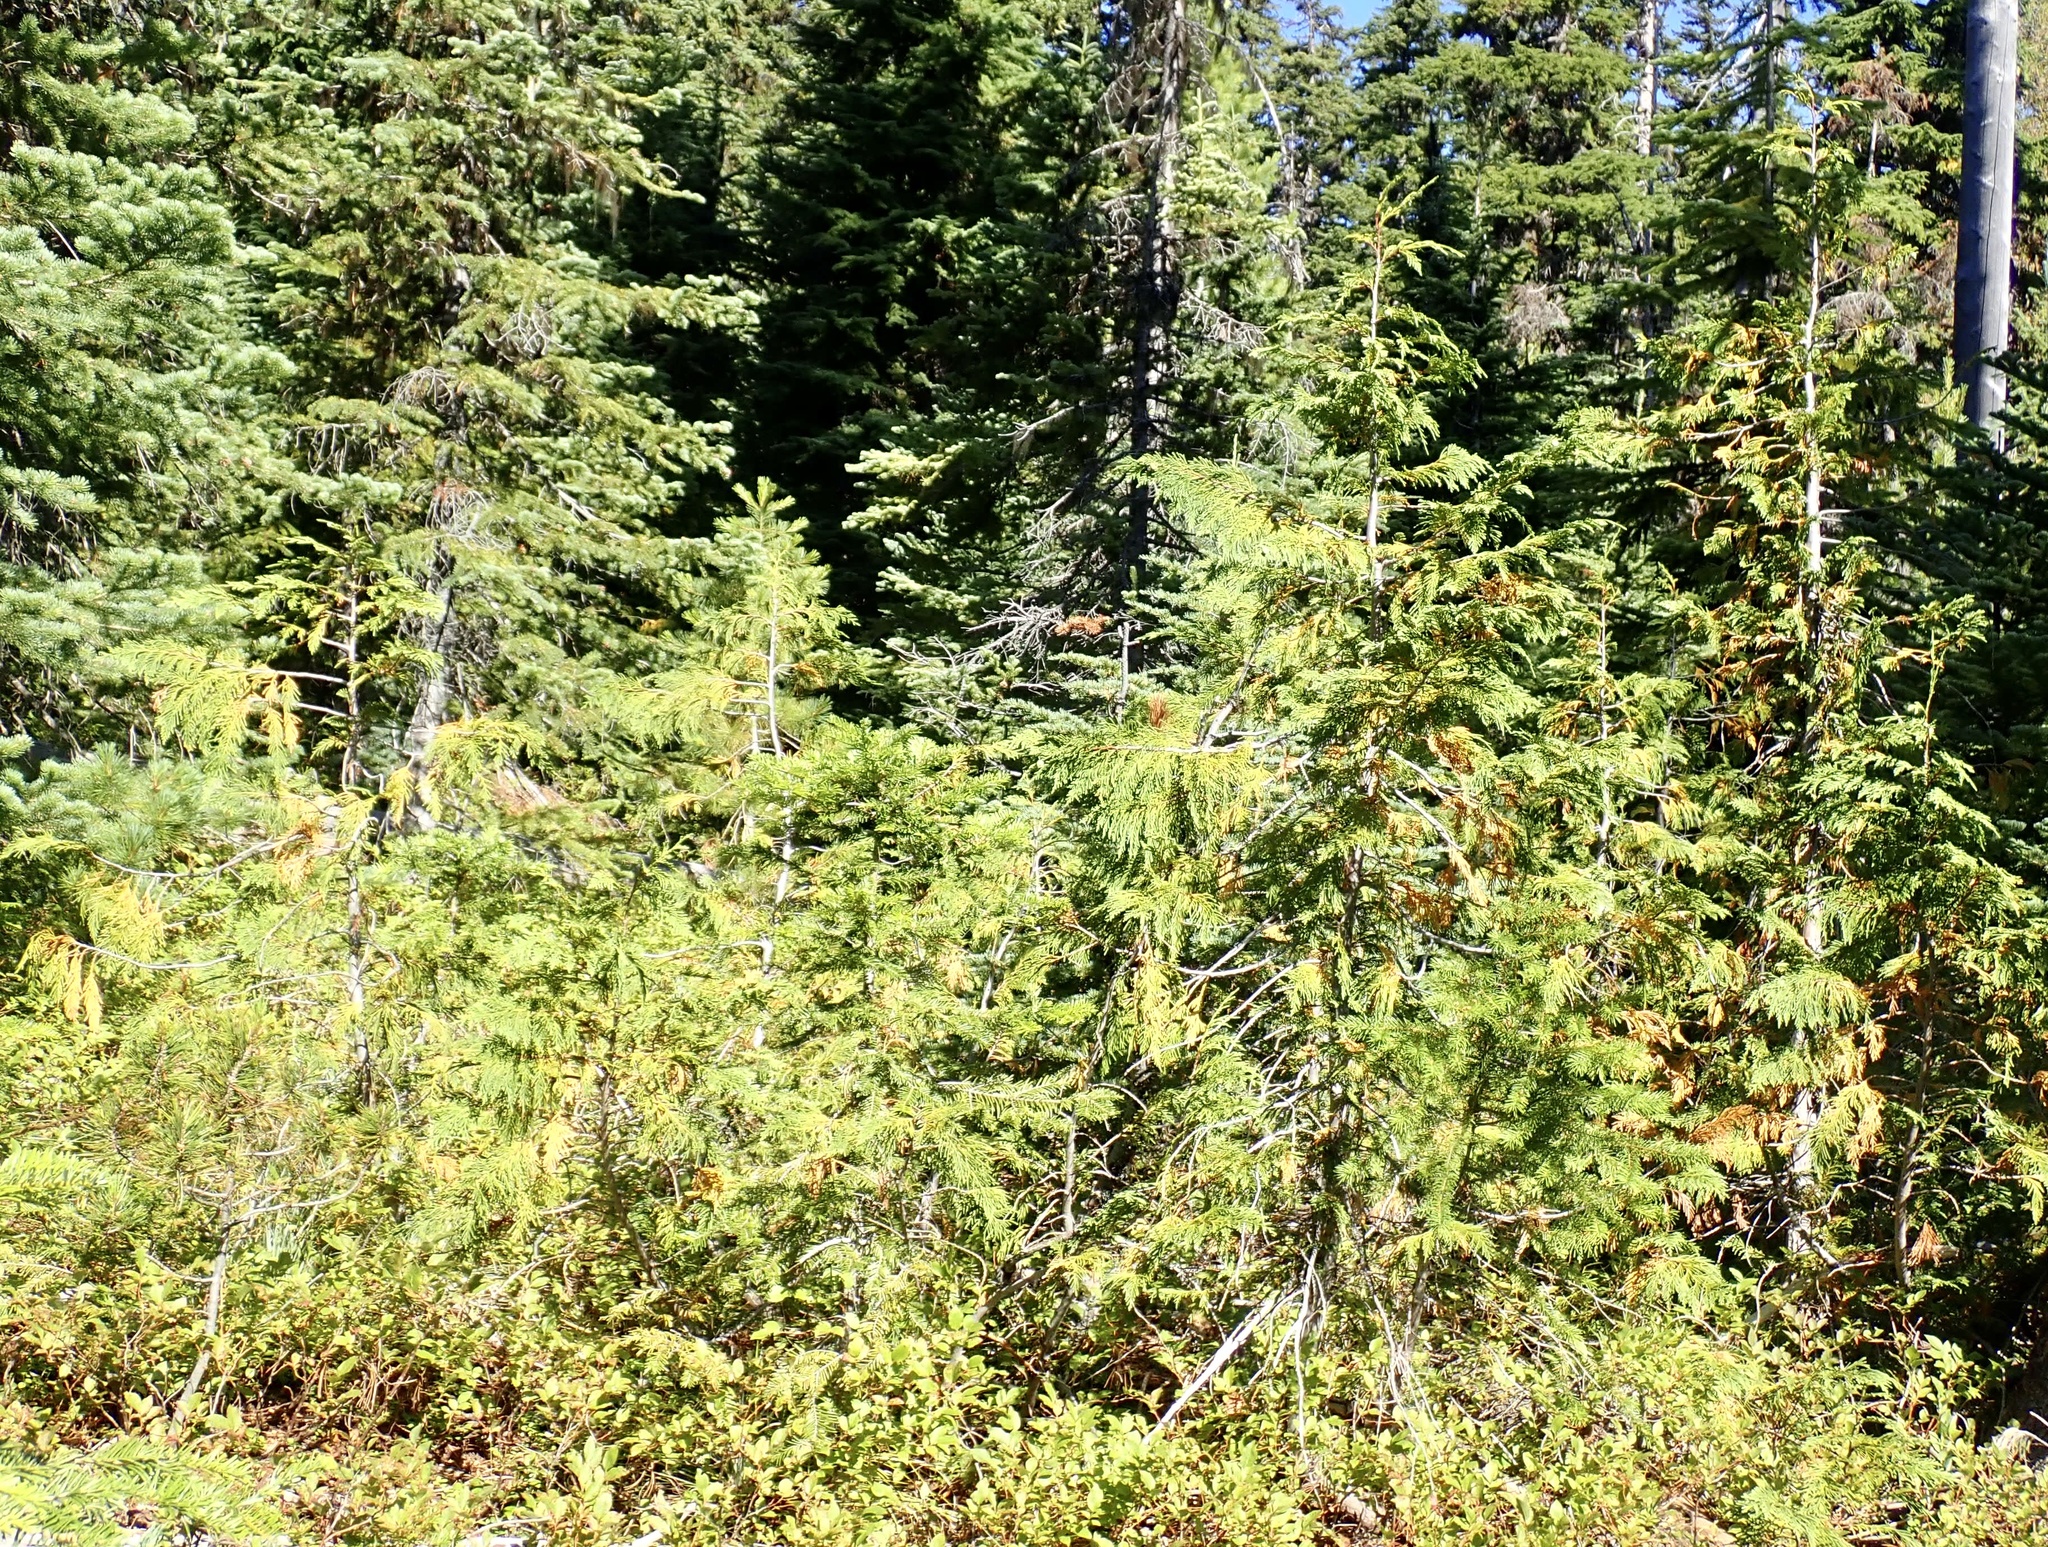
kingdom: Plantae
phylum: Tracheophyta
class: Pinopsida
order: Pinales
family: Cupressaceae
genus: Xanthocyparis
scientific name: Xanthocyparis nootkatensis
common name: Nootka cypress
